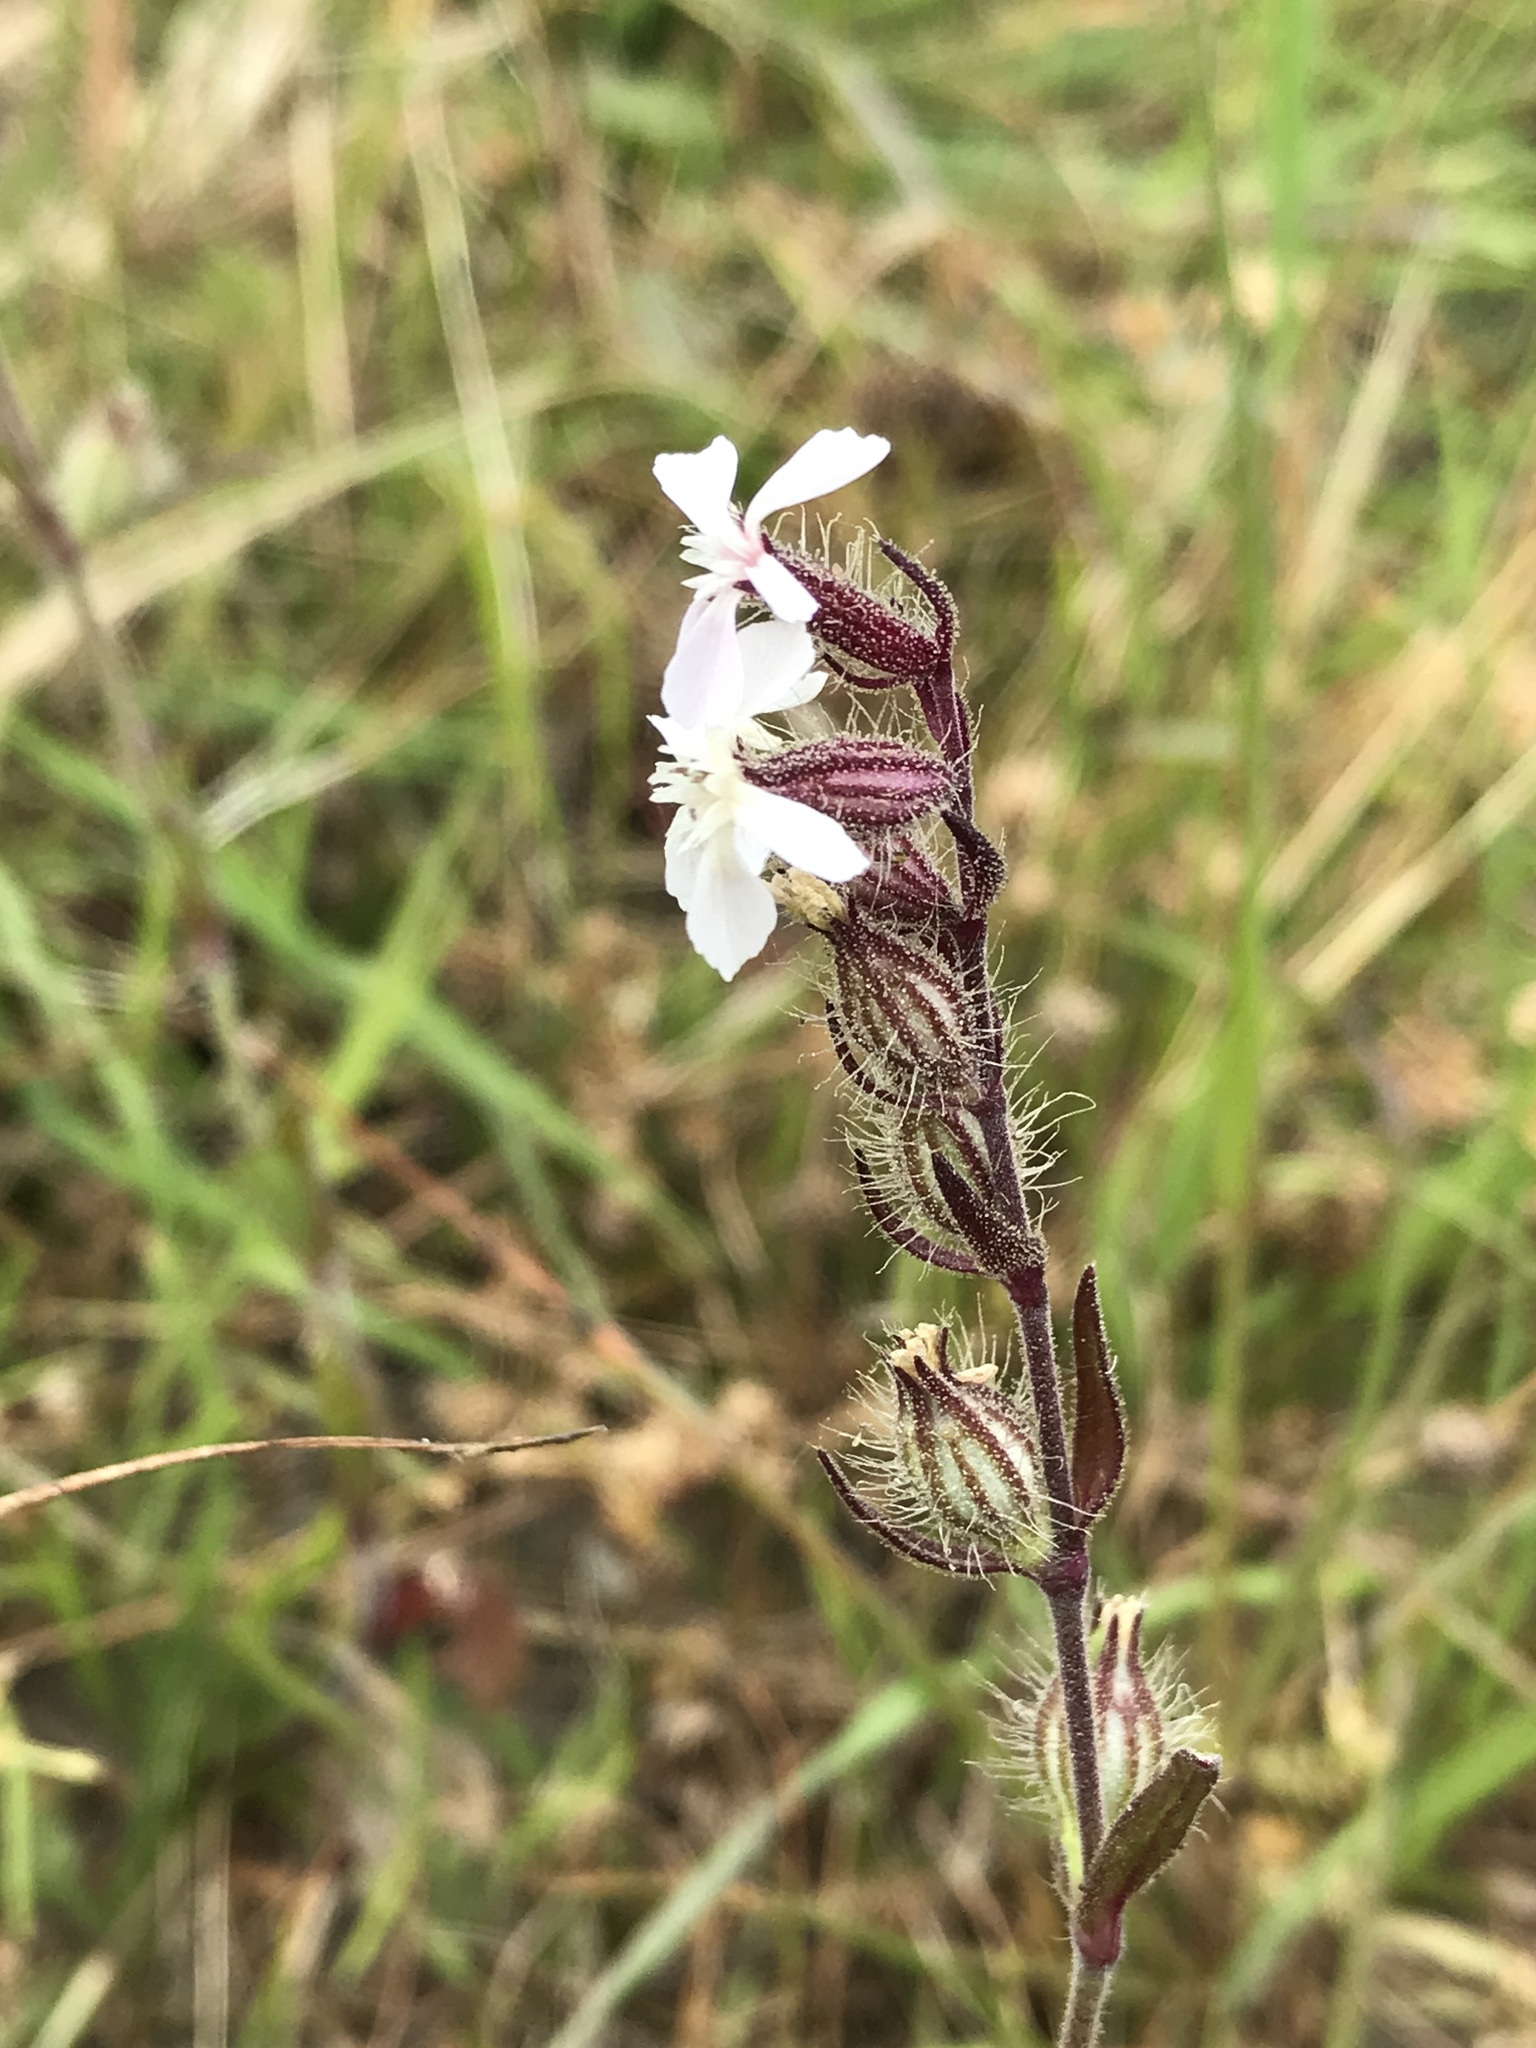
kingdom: Plantae
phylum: Tracheophyta
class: Magnoliopsida
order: Caryophyllales
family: Caryophyllaceae
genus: Silene
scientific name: Silene gallica
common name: Small-flowered catchfly
